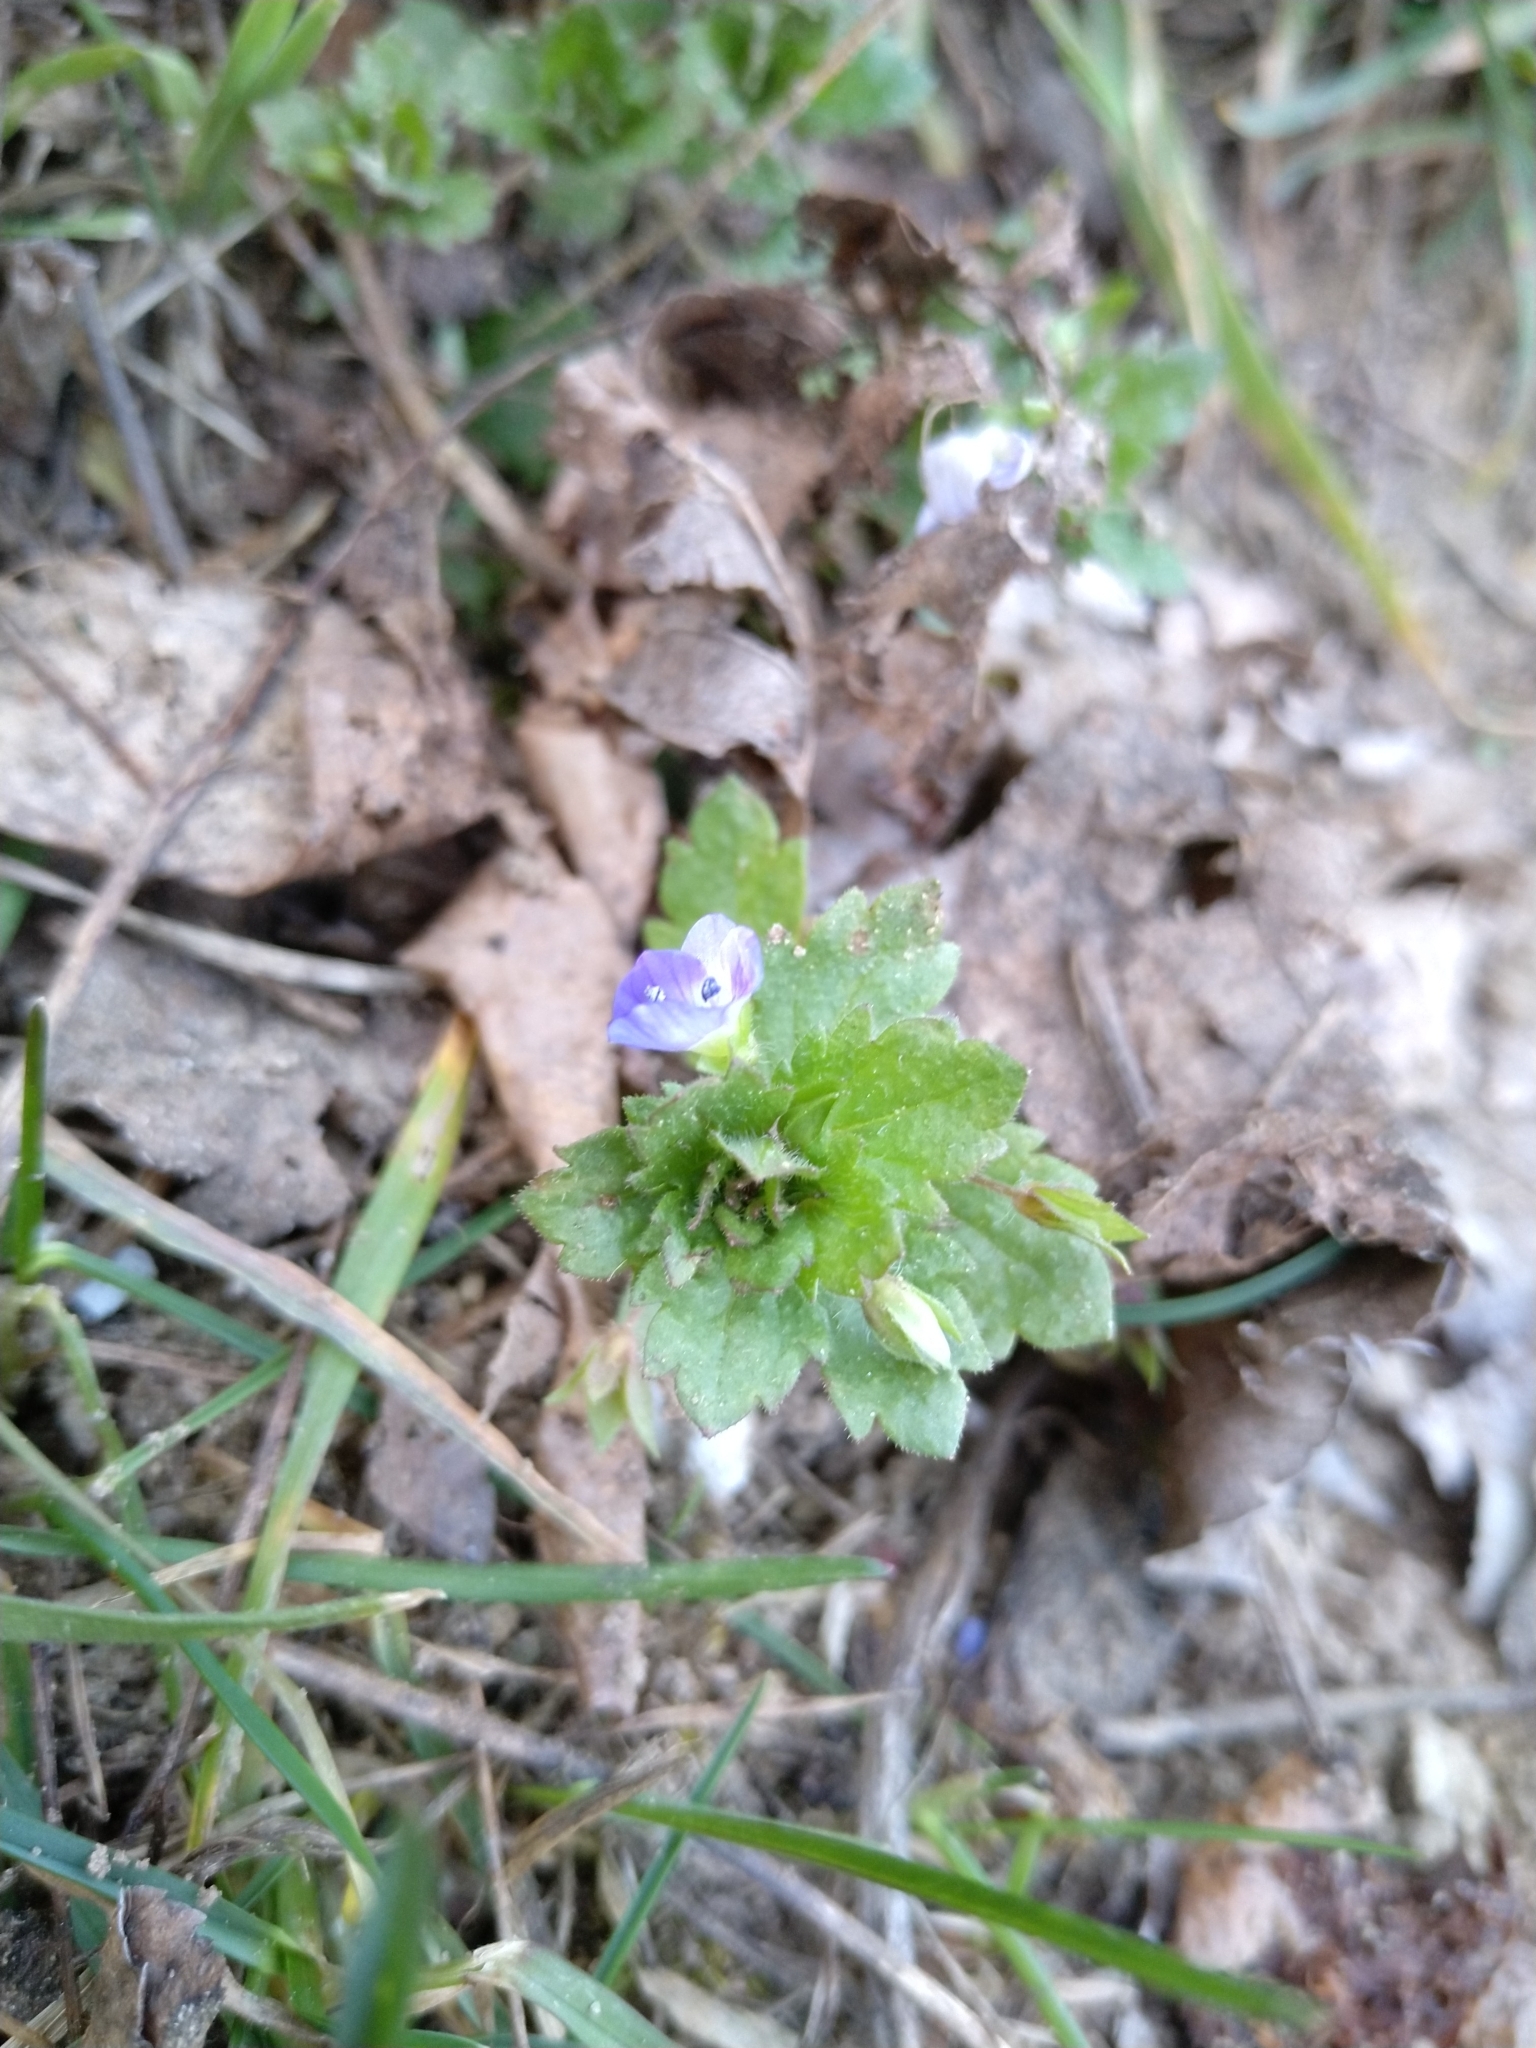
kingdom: Plantae
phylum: Tracheophyta
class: Magnoliopsida
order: Lamiales
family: Plantaginaceae
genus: Veronica
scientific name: Veronica persica
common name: Common field-speedwell
